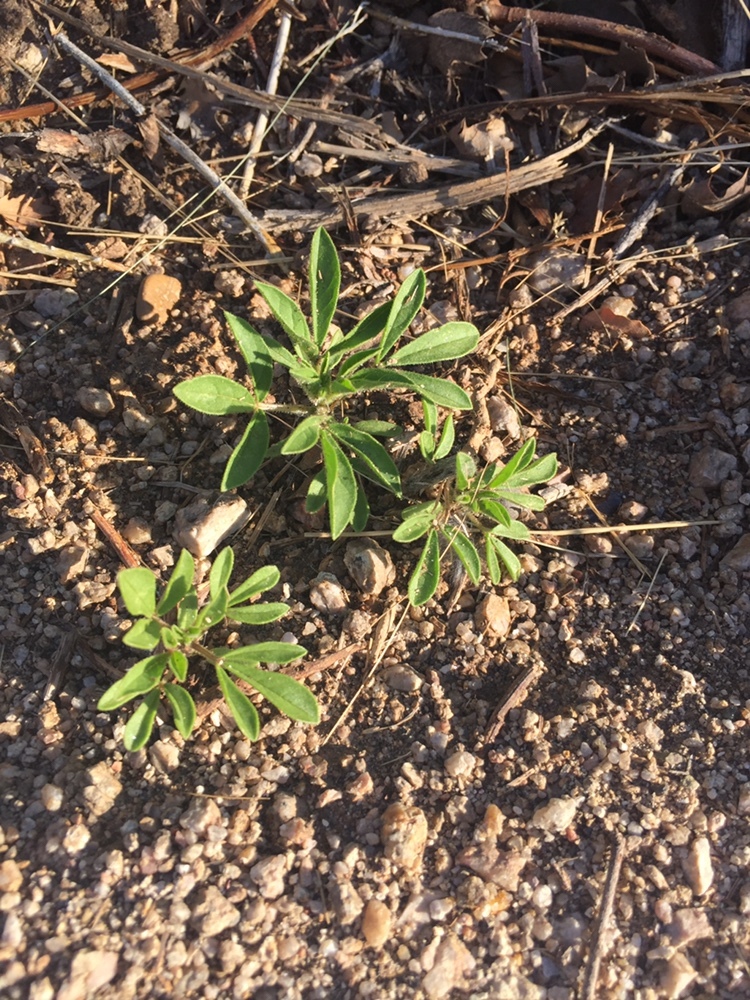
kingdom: Plantae
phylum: Tracheophyta
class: Magnoliopsida
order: Brassicales
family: Cleomaceae
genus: Polanisia
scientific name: Polanisia dodecandra
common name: Clammyweed
